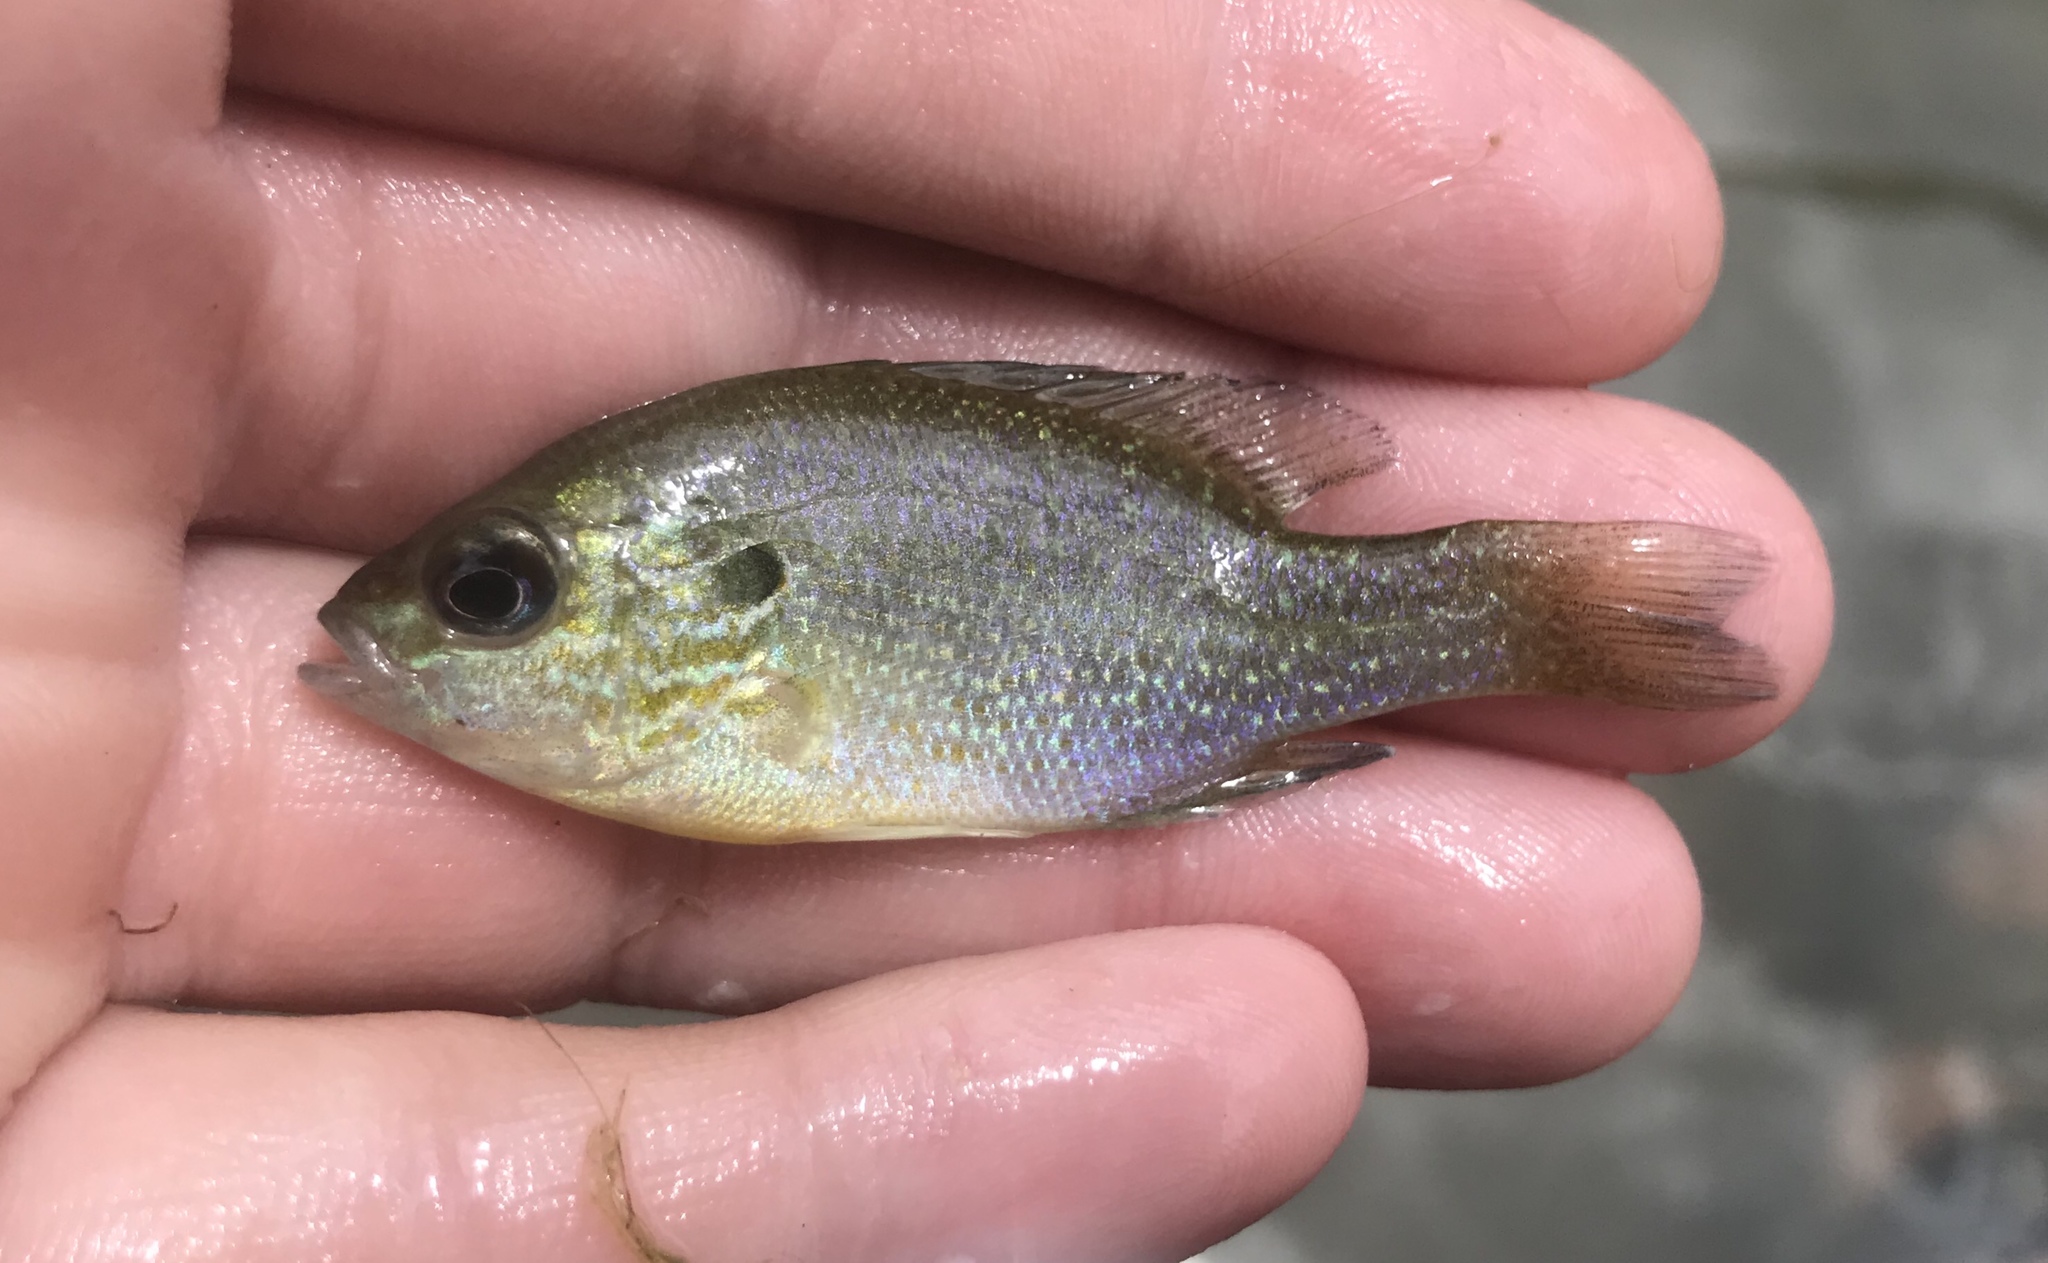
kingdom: Animalia
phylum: Chordata
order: Perciformes
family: Centrarchidae
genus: Lepomis
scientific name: Lepomis megalotis
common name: Longear sunfish
